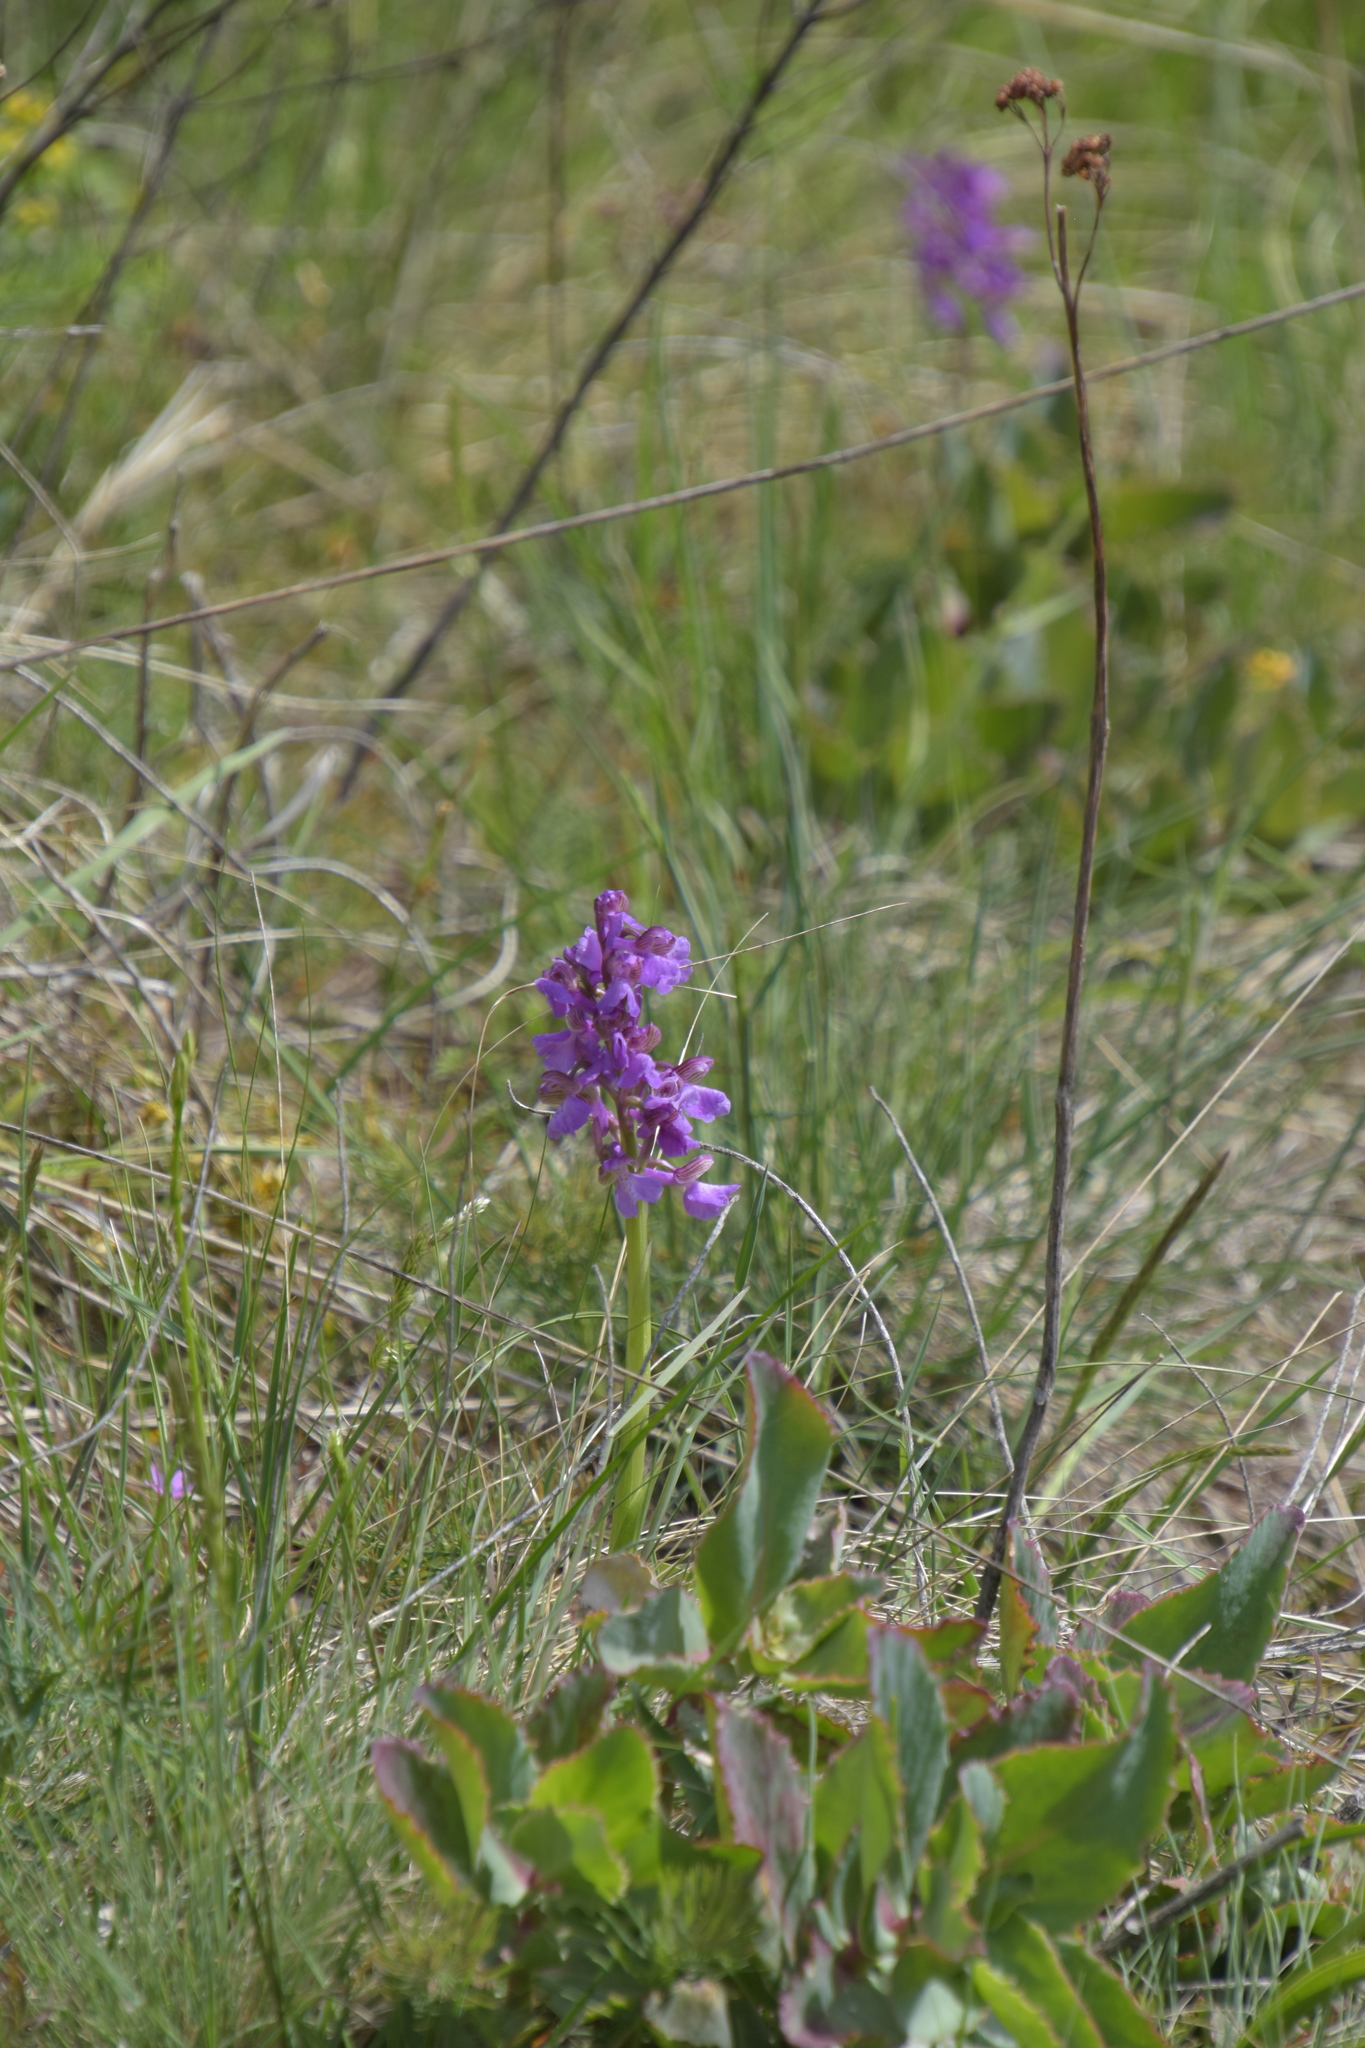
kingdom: Plantae
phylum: Tracheophyta
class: Liliopsida
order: Asparagales
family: Orchidaceae
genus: Anacamptis
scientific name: Anacamptis morio
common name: Green-winged orchid
